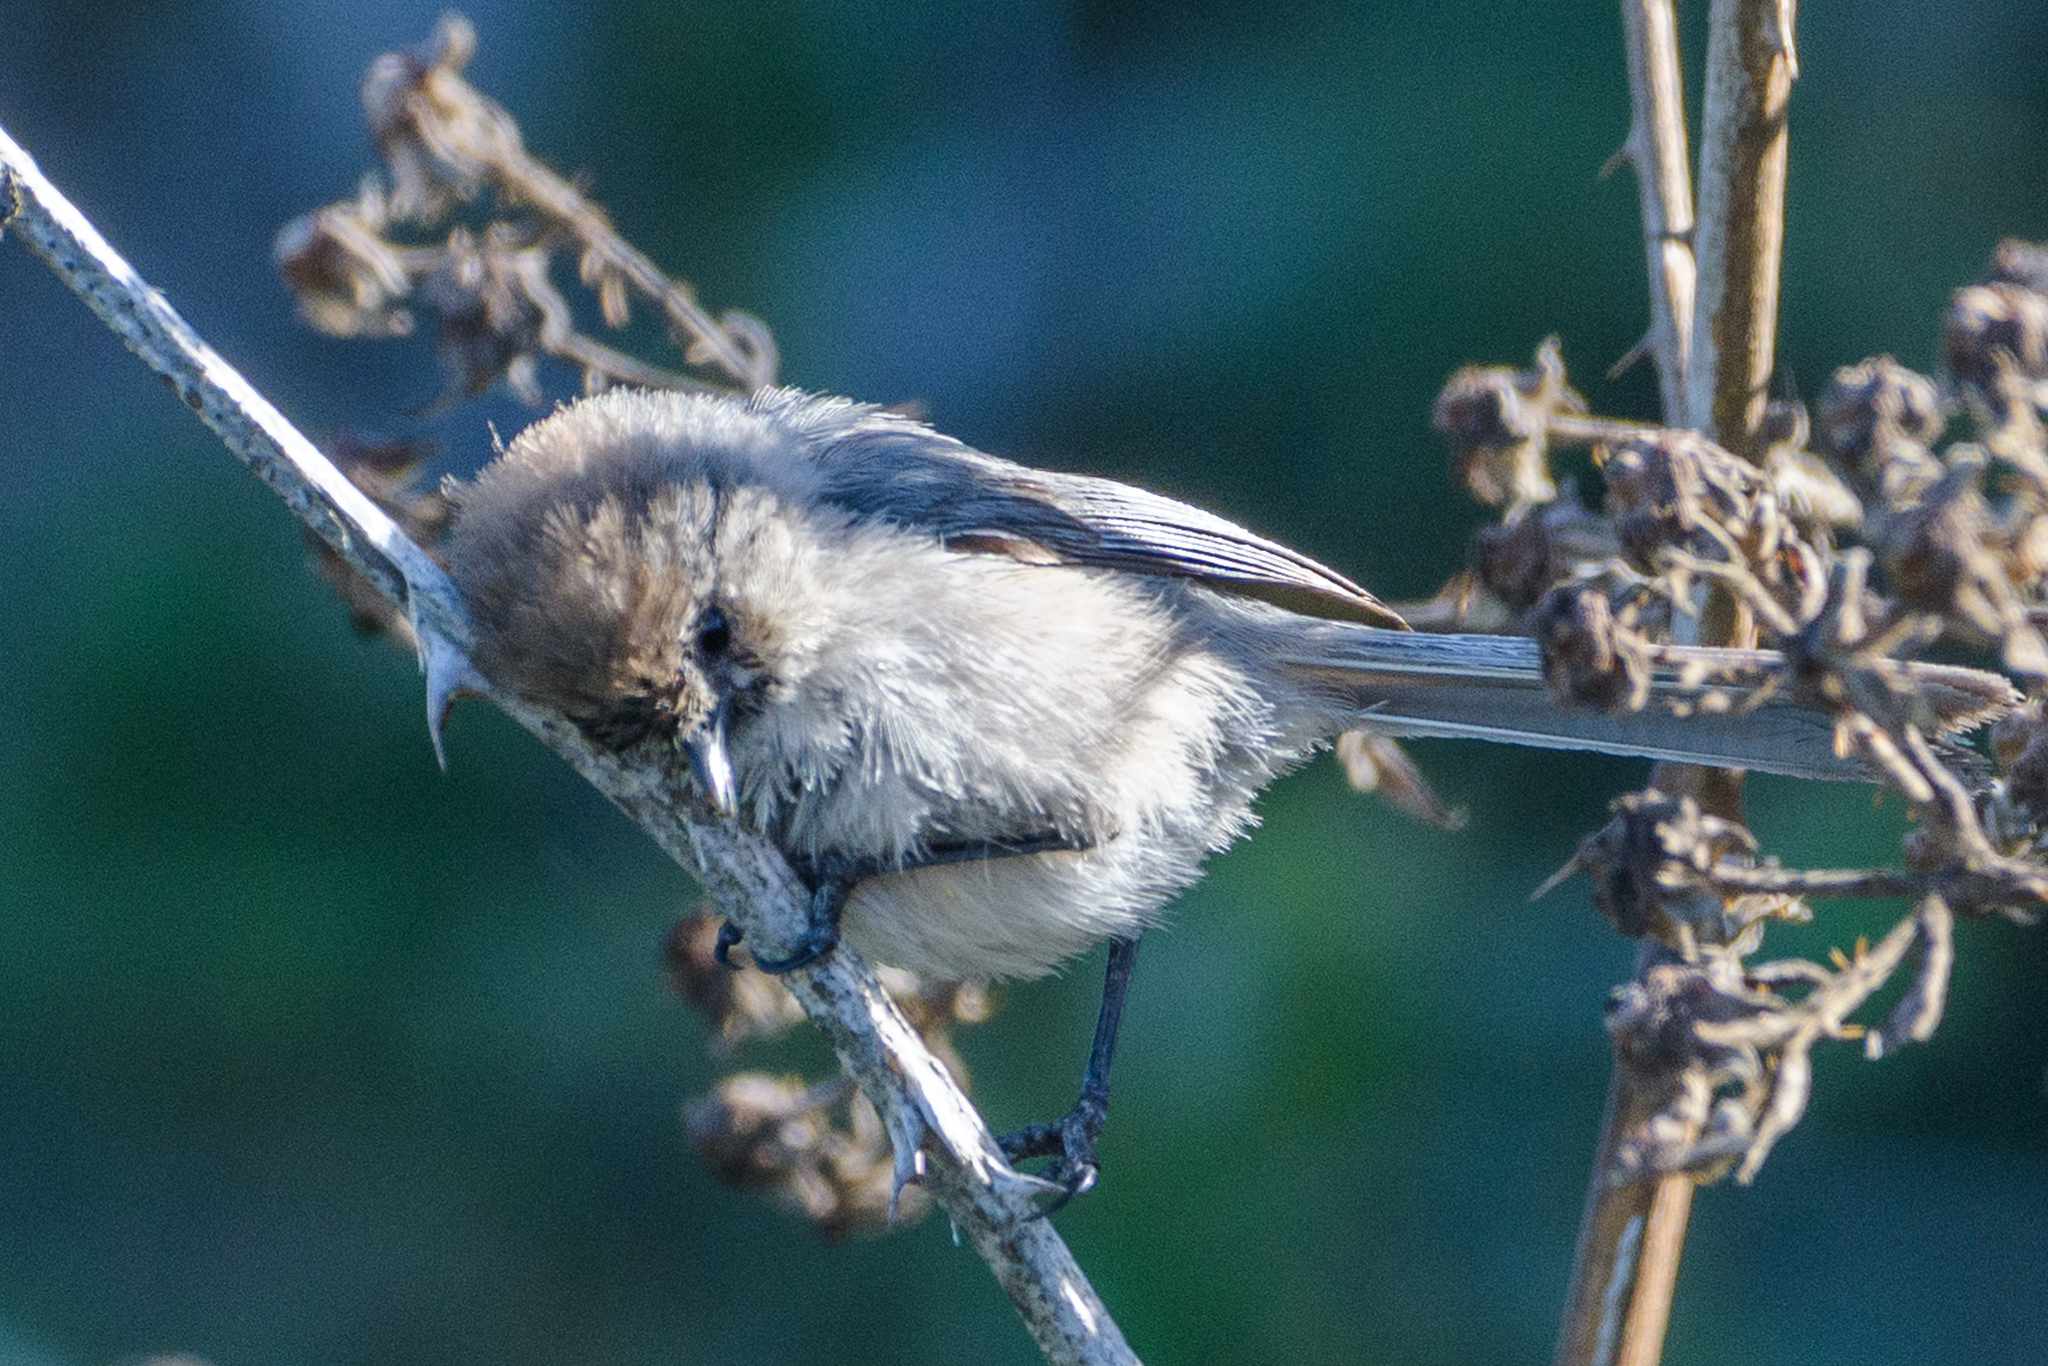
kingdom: Animalia
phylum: Chordata
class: Aves
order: Passeriformes
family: Aegithalidae
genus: Psaltriparus
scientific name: Psaltriparus minimus
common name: American bushtit
